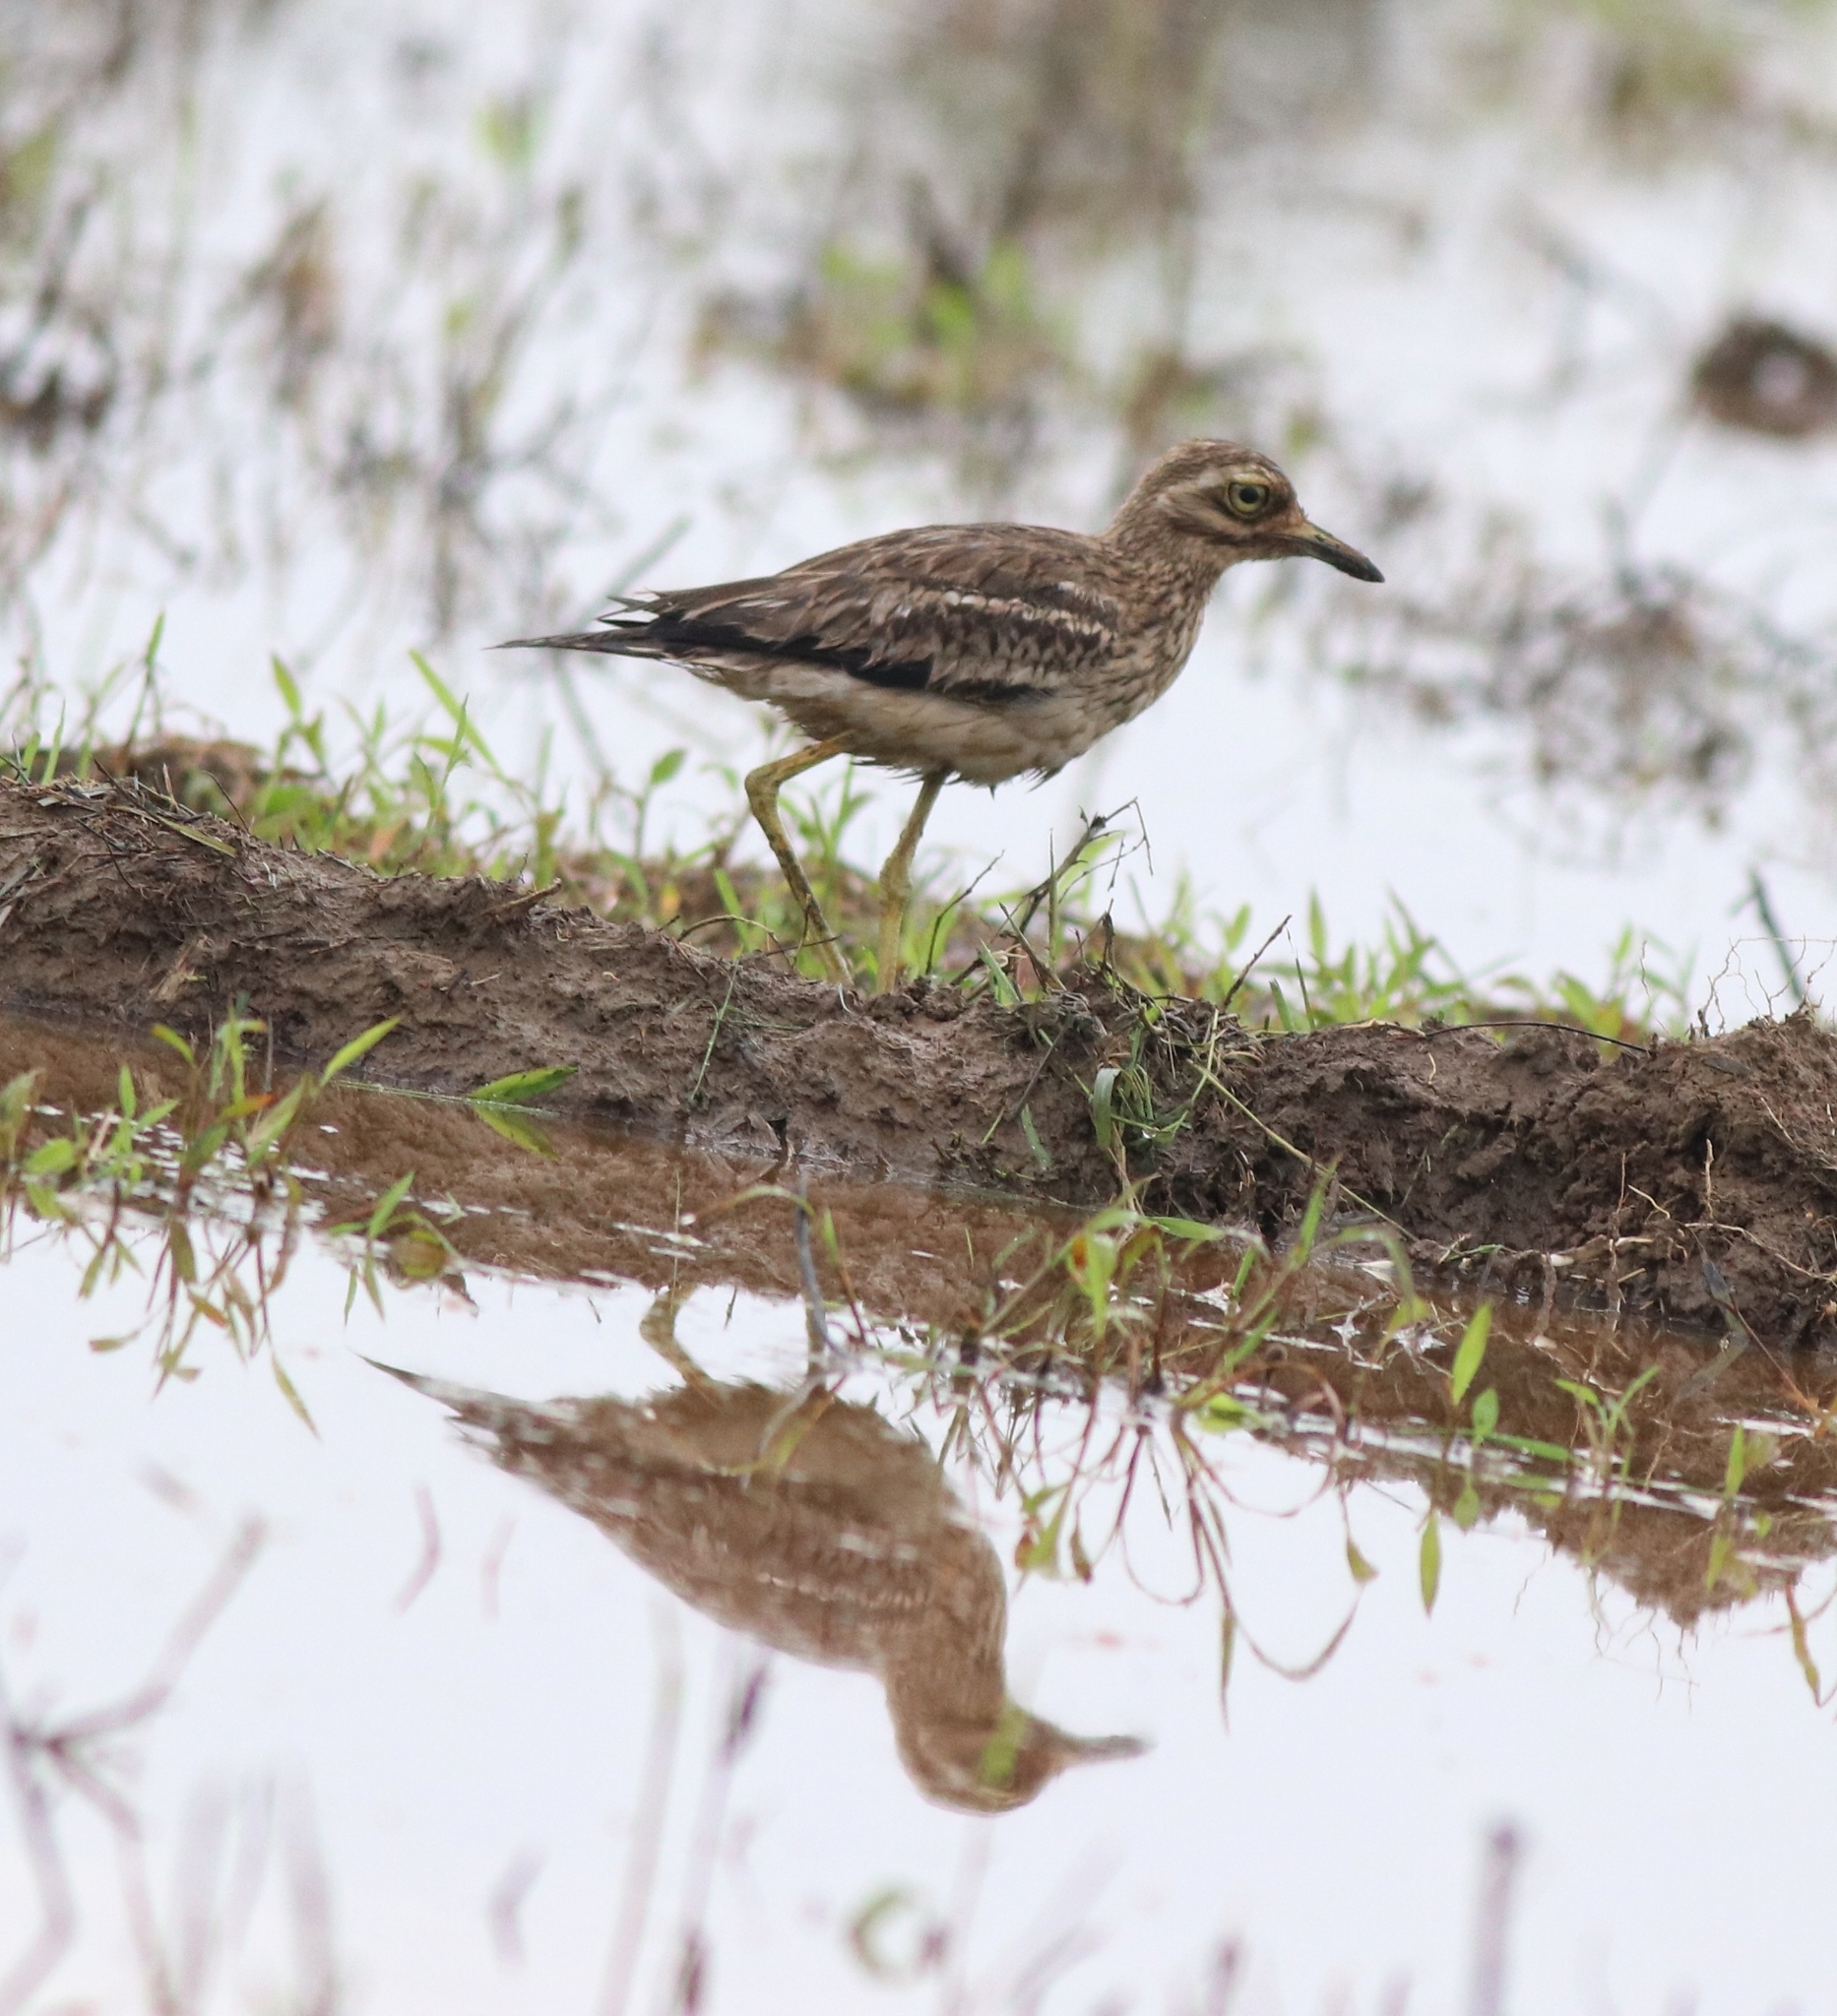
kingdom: Animalia
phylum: Chordata
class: Aves
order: Charadriiformes
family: Burhinidae
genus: Burhinus
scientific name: Burhinus indicus
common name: Indian thick-knee
